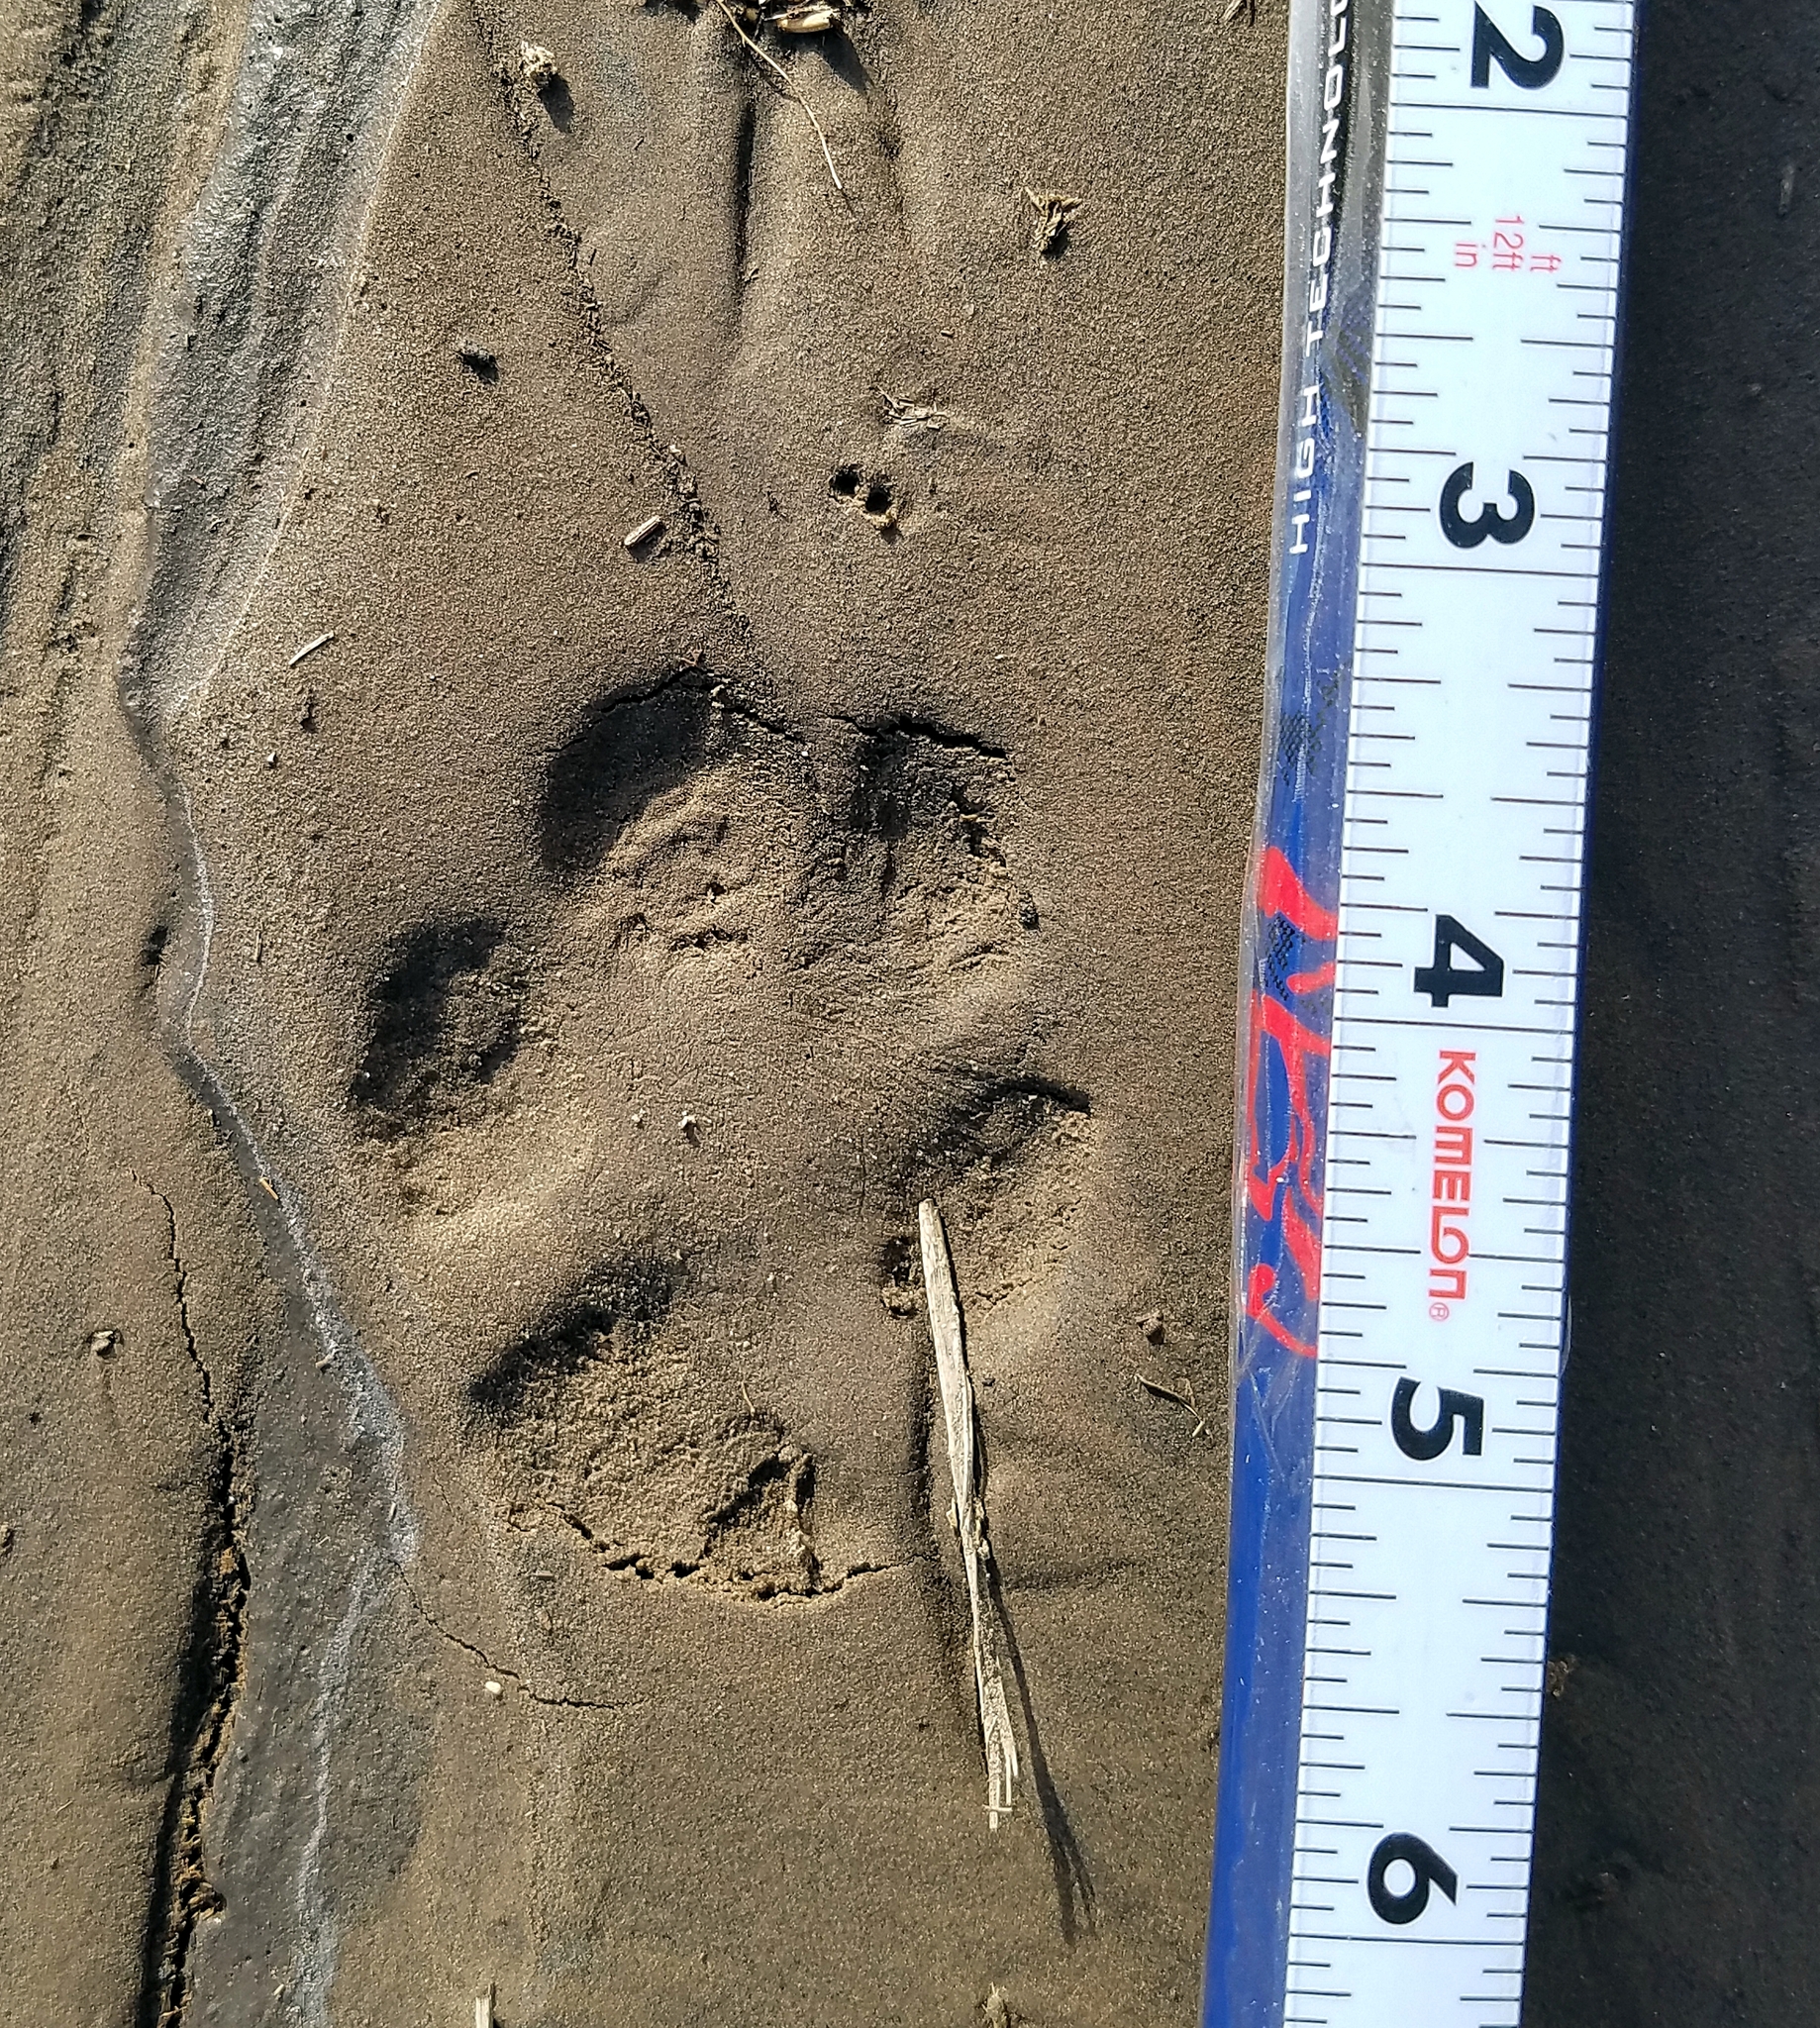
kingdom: Animalia
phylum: Chordata
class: Mammalia
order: Carnivora
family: Canidae
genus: Canis
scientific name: Canis latrans
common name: Coyote
